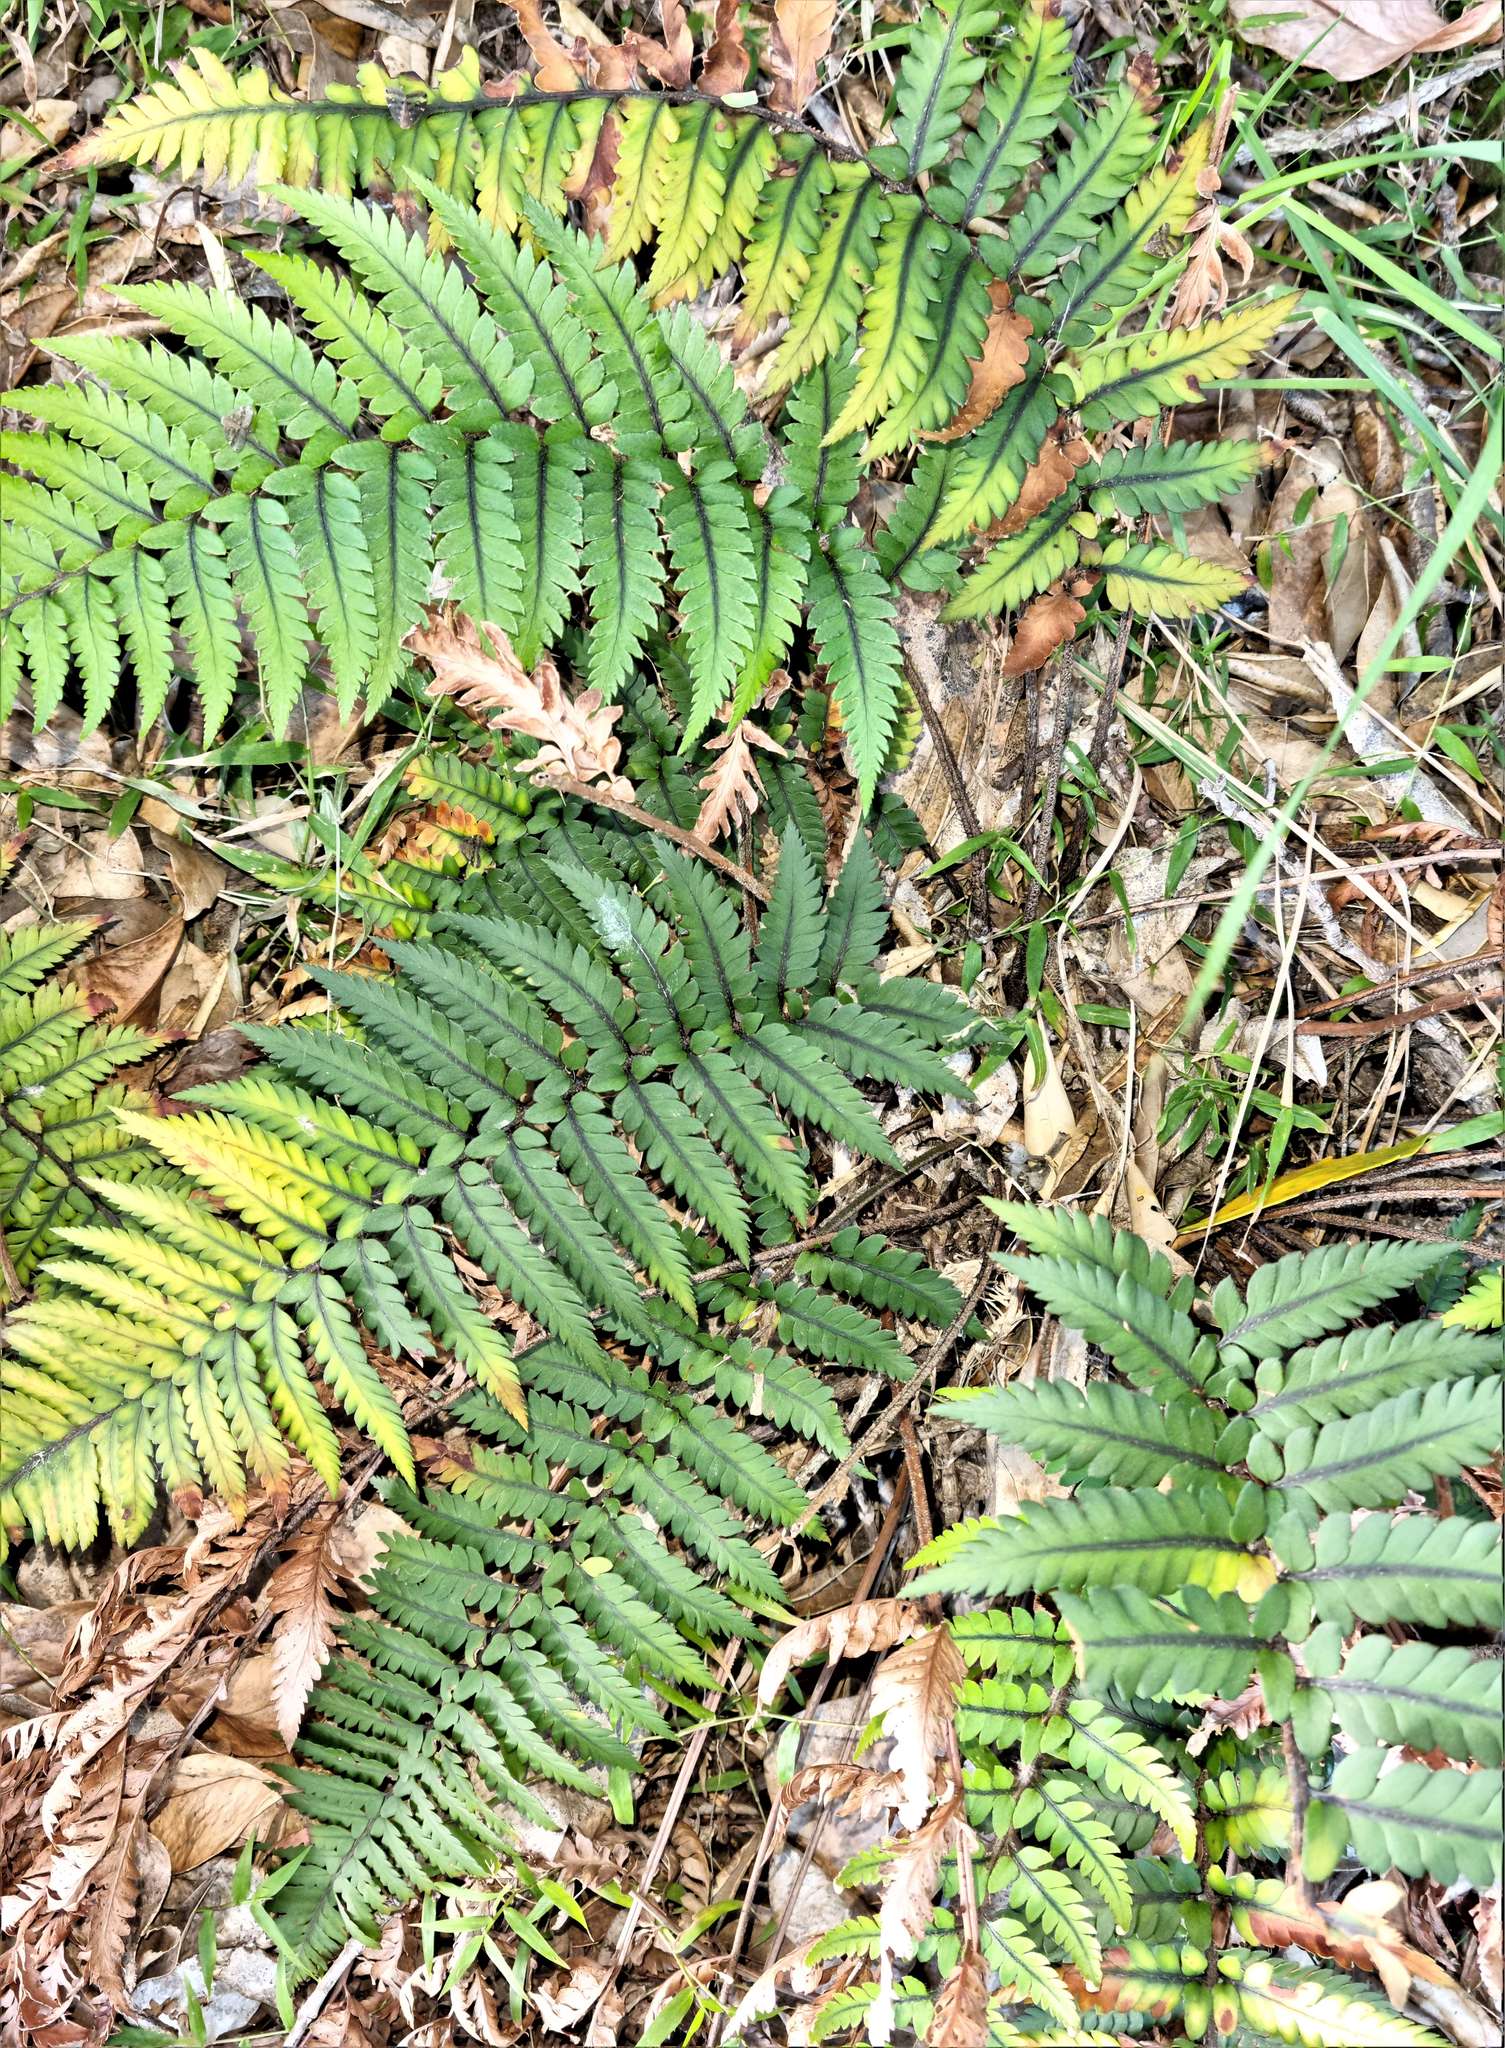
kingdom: Plantae
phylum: Tracheophyta
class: Polypodiopsida
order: Polypodiales
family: Dryopteridaceae
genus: Polystichum
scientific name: Polystichum wawranum
